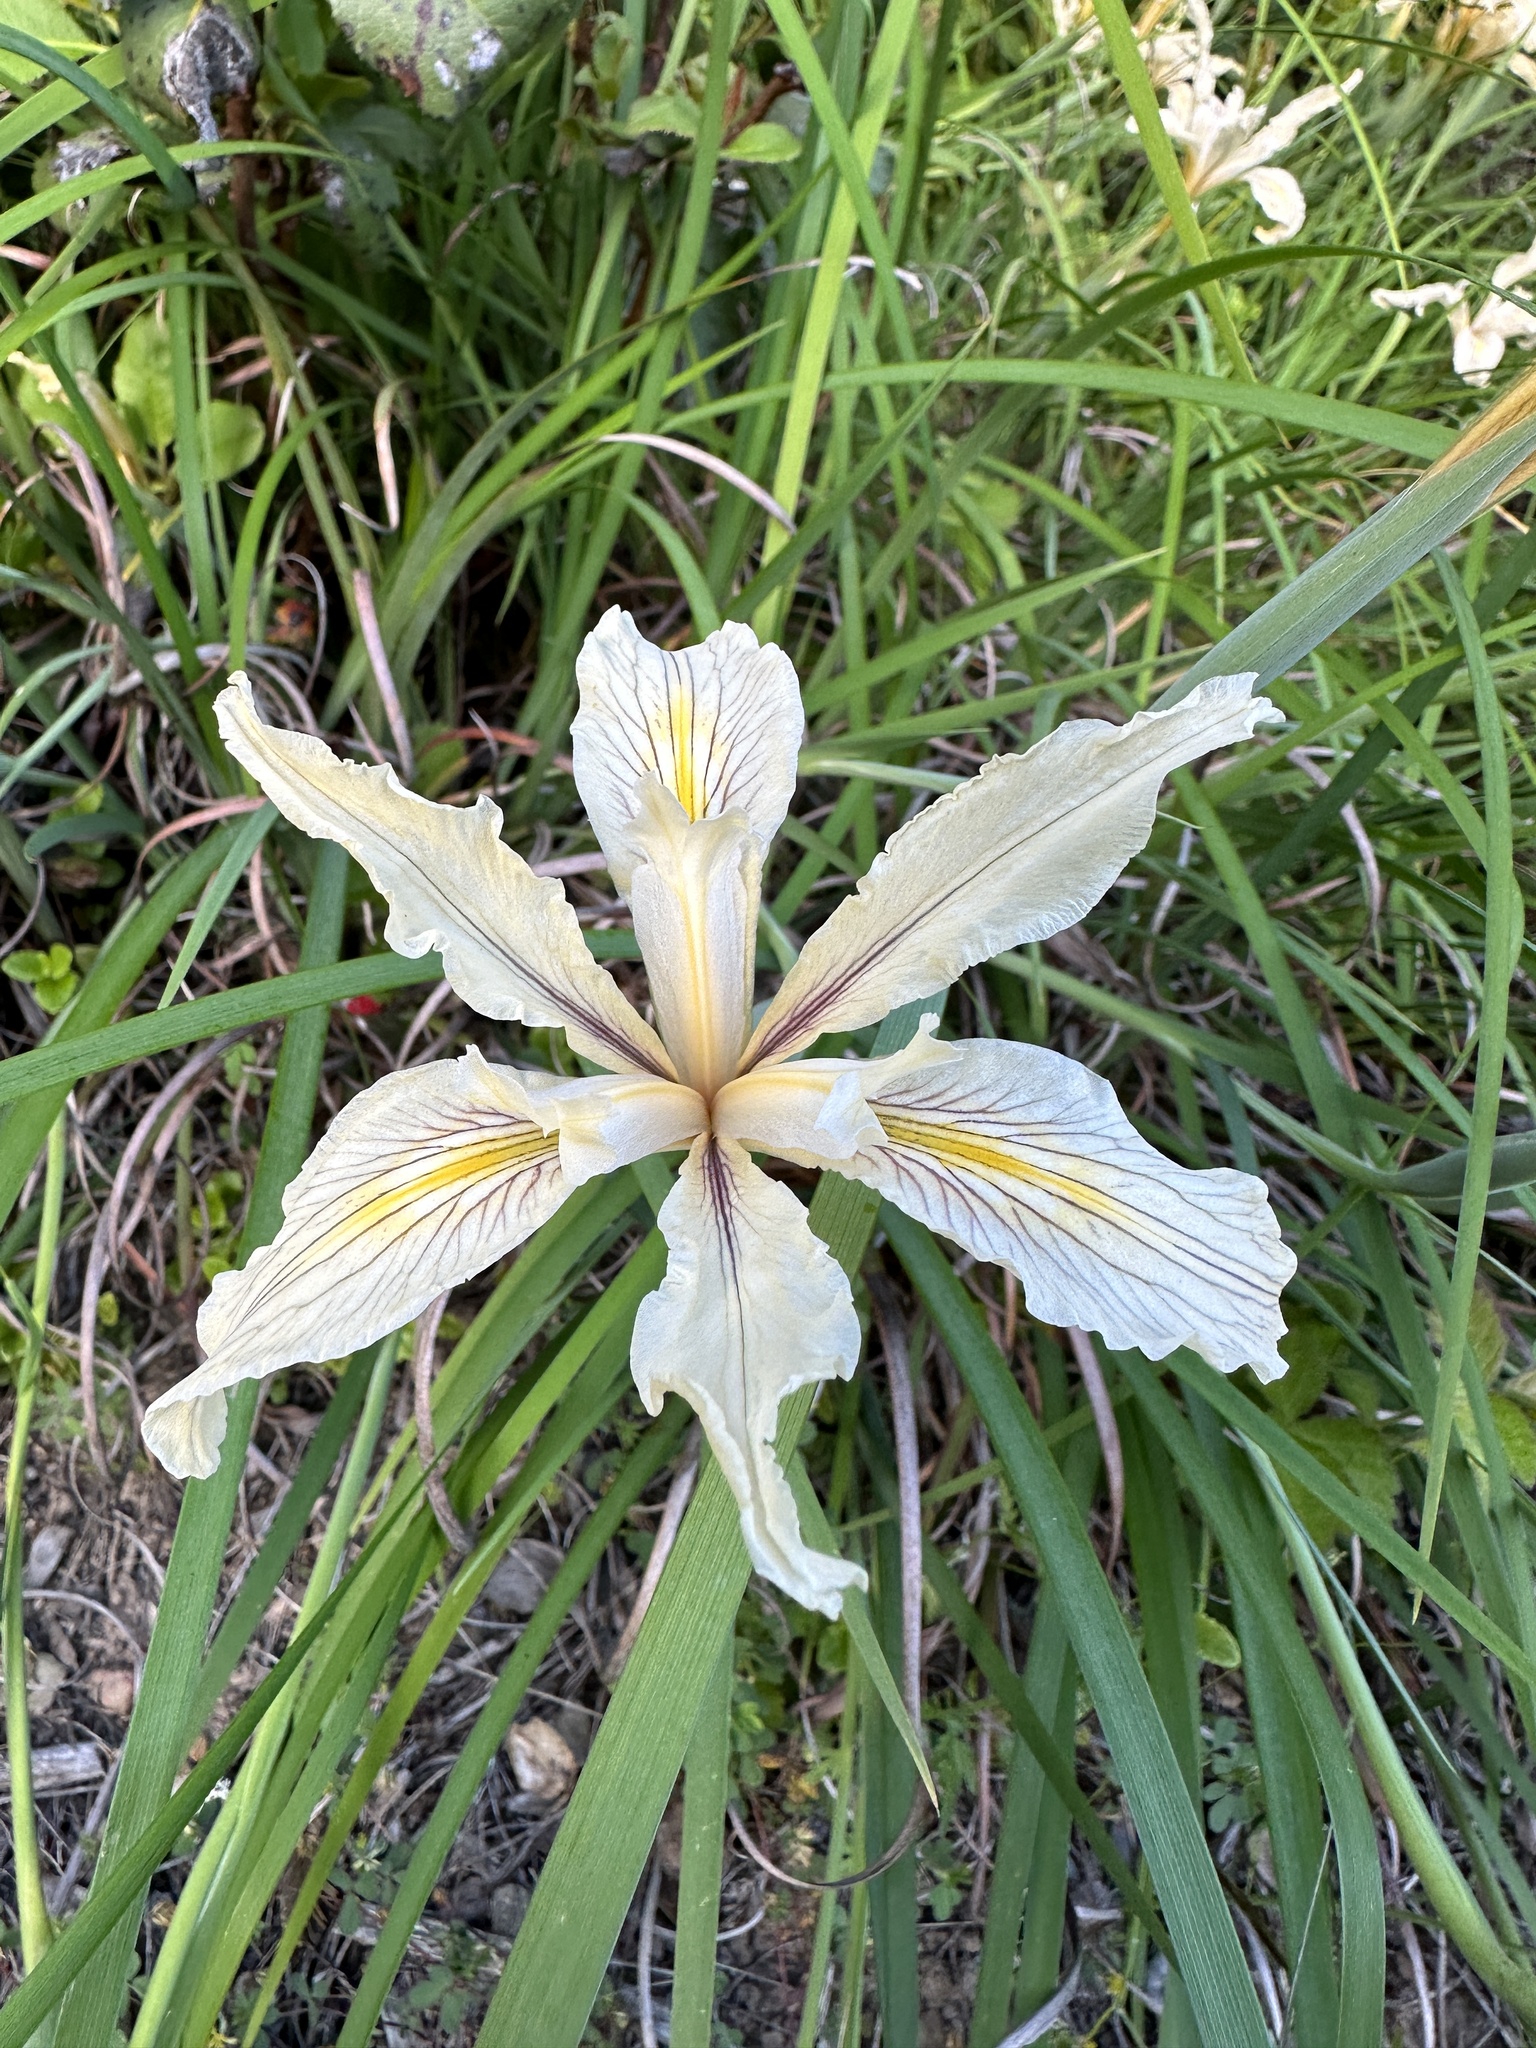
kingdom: Plantae
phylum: Tracheophyta
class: Liliopsida
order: Asparagales
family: Iridaceae
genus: Iris
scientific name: Iris fernaldii
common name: Fernald's iris
